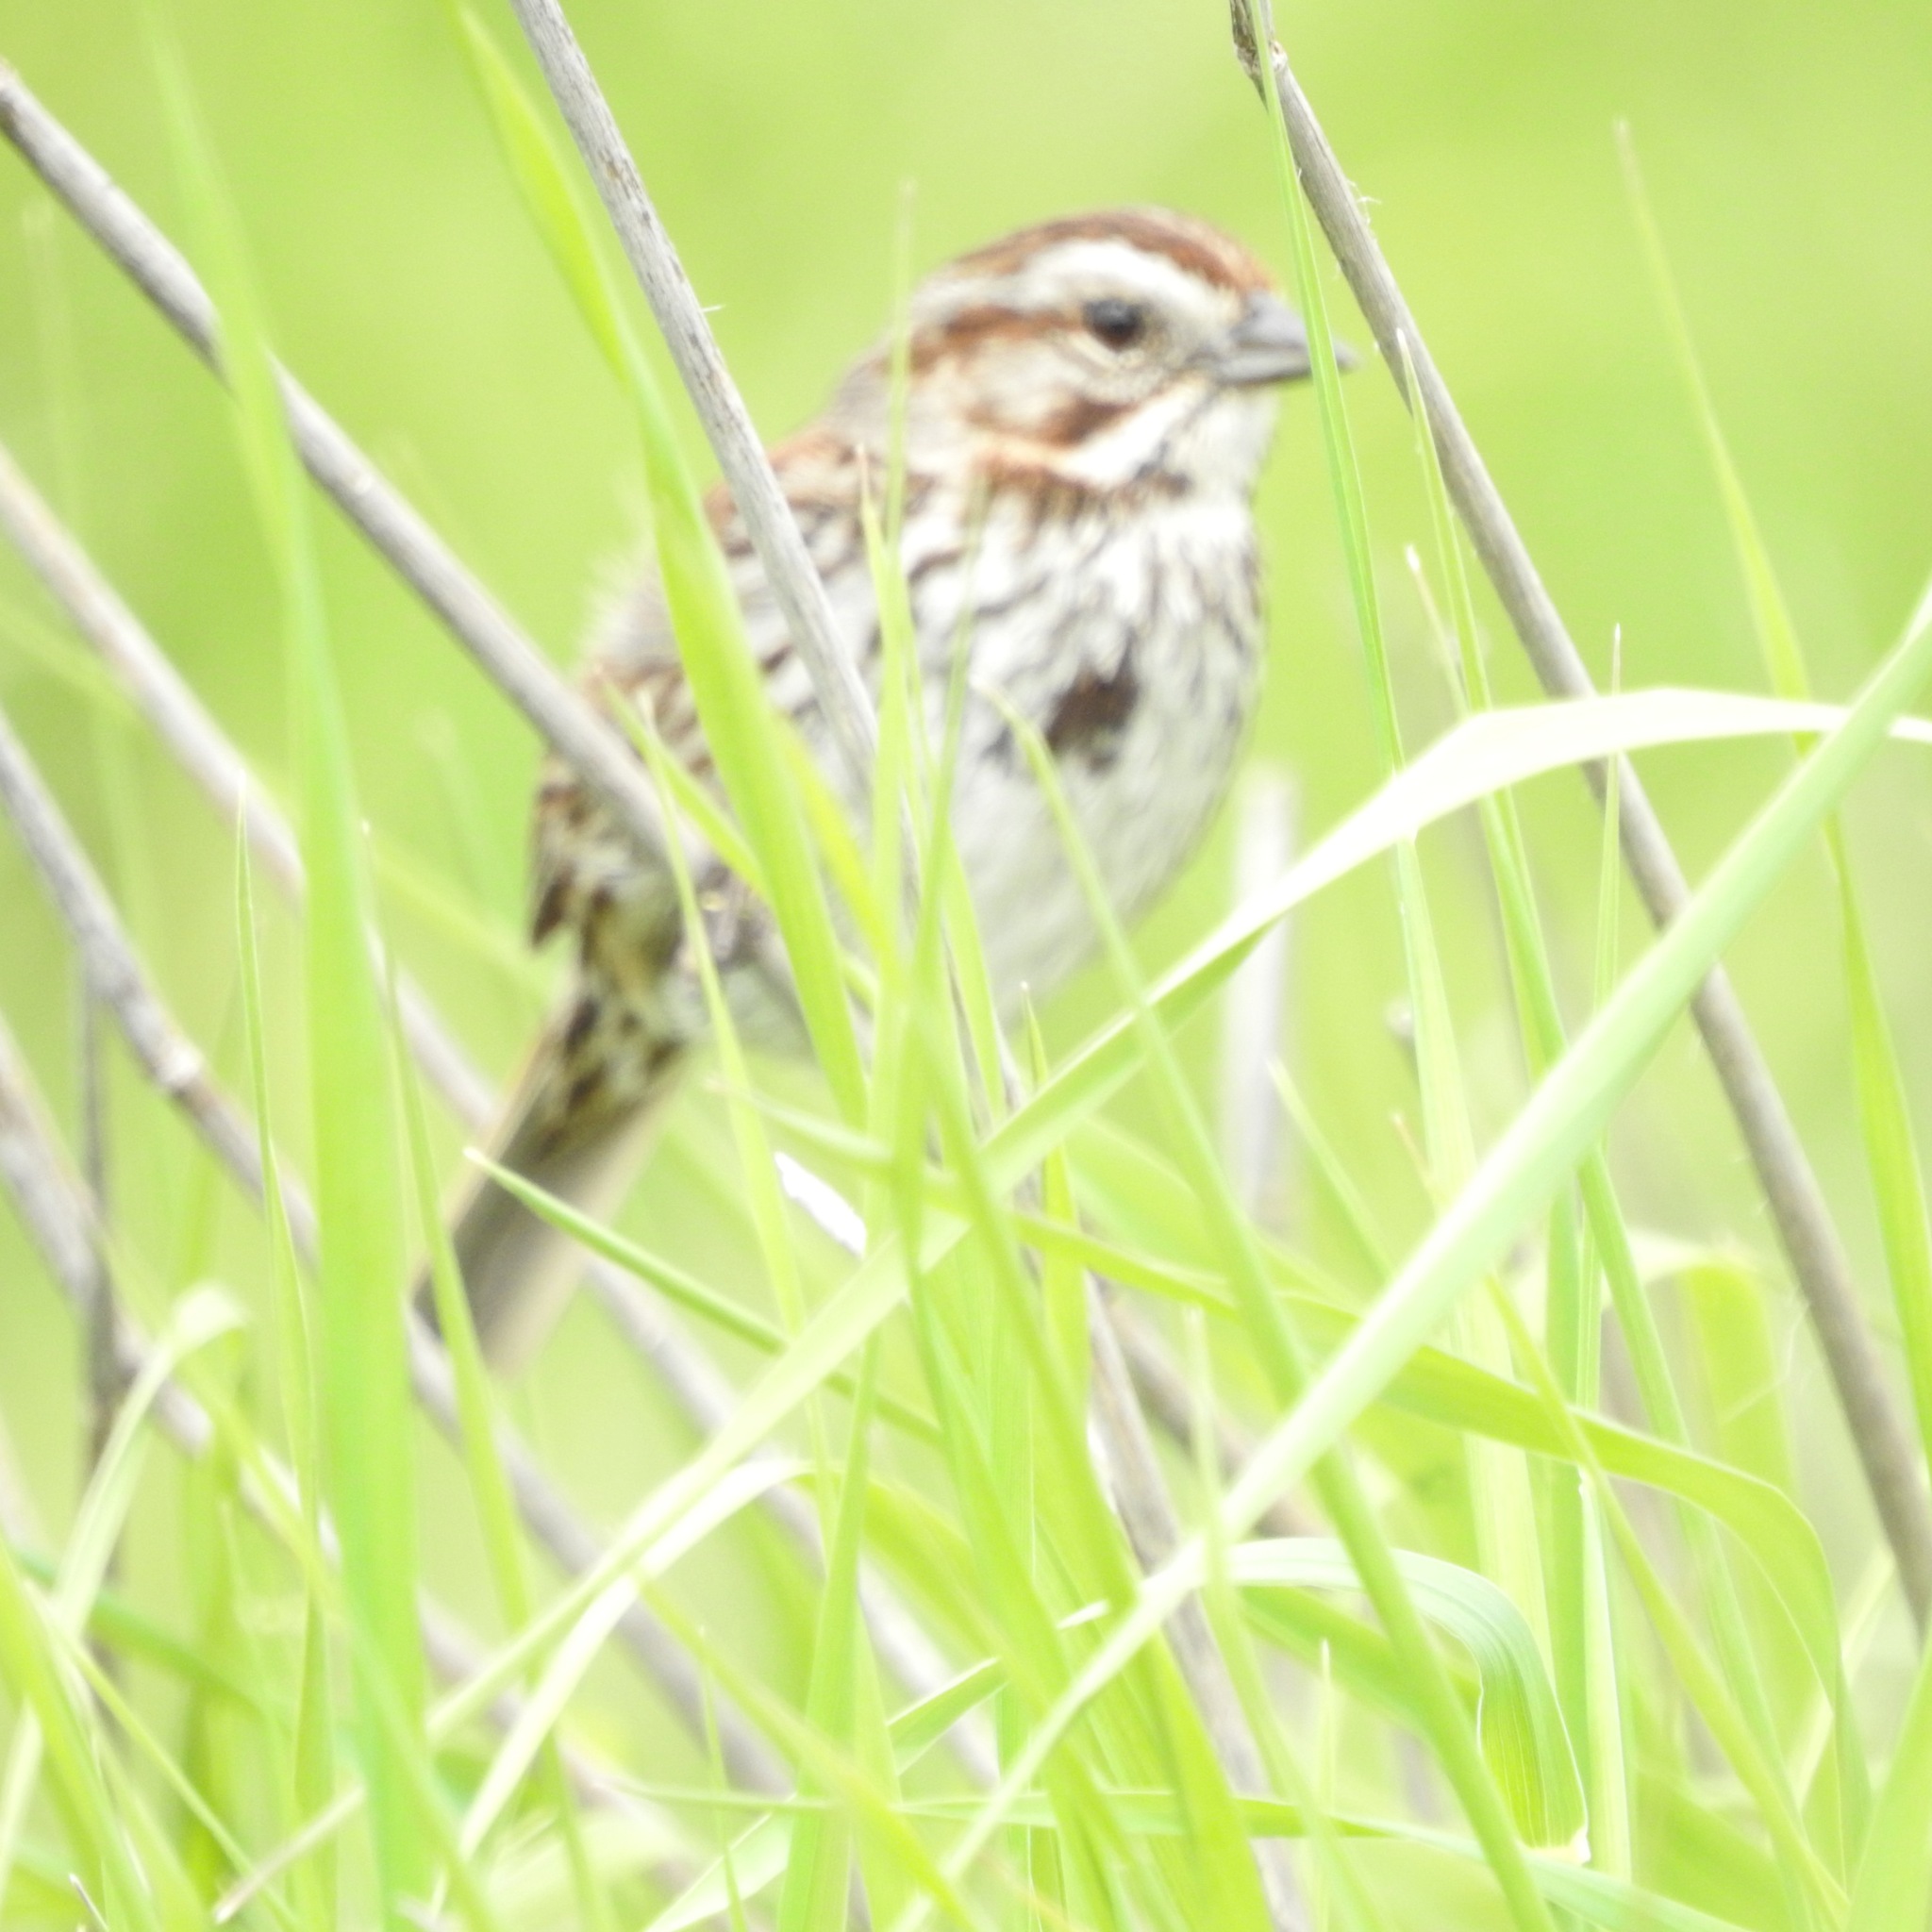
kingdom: Animalia
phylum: Chordata
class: Aves
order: Passeriformes
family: Passerellidae
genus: Melospiza
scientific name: Melospiza melodia
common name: Song sparrow
